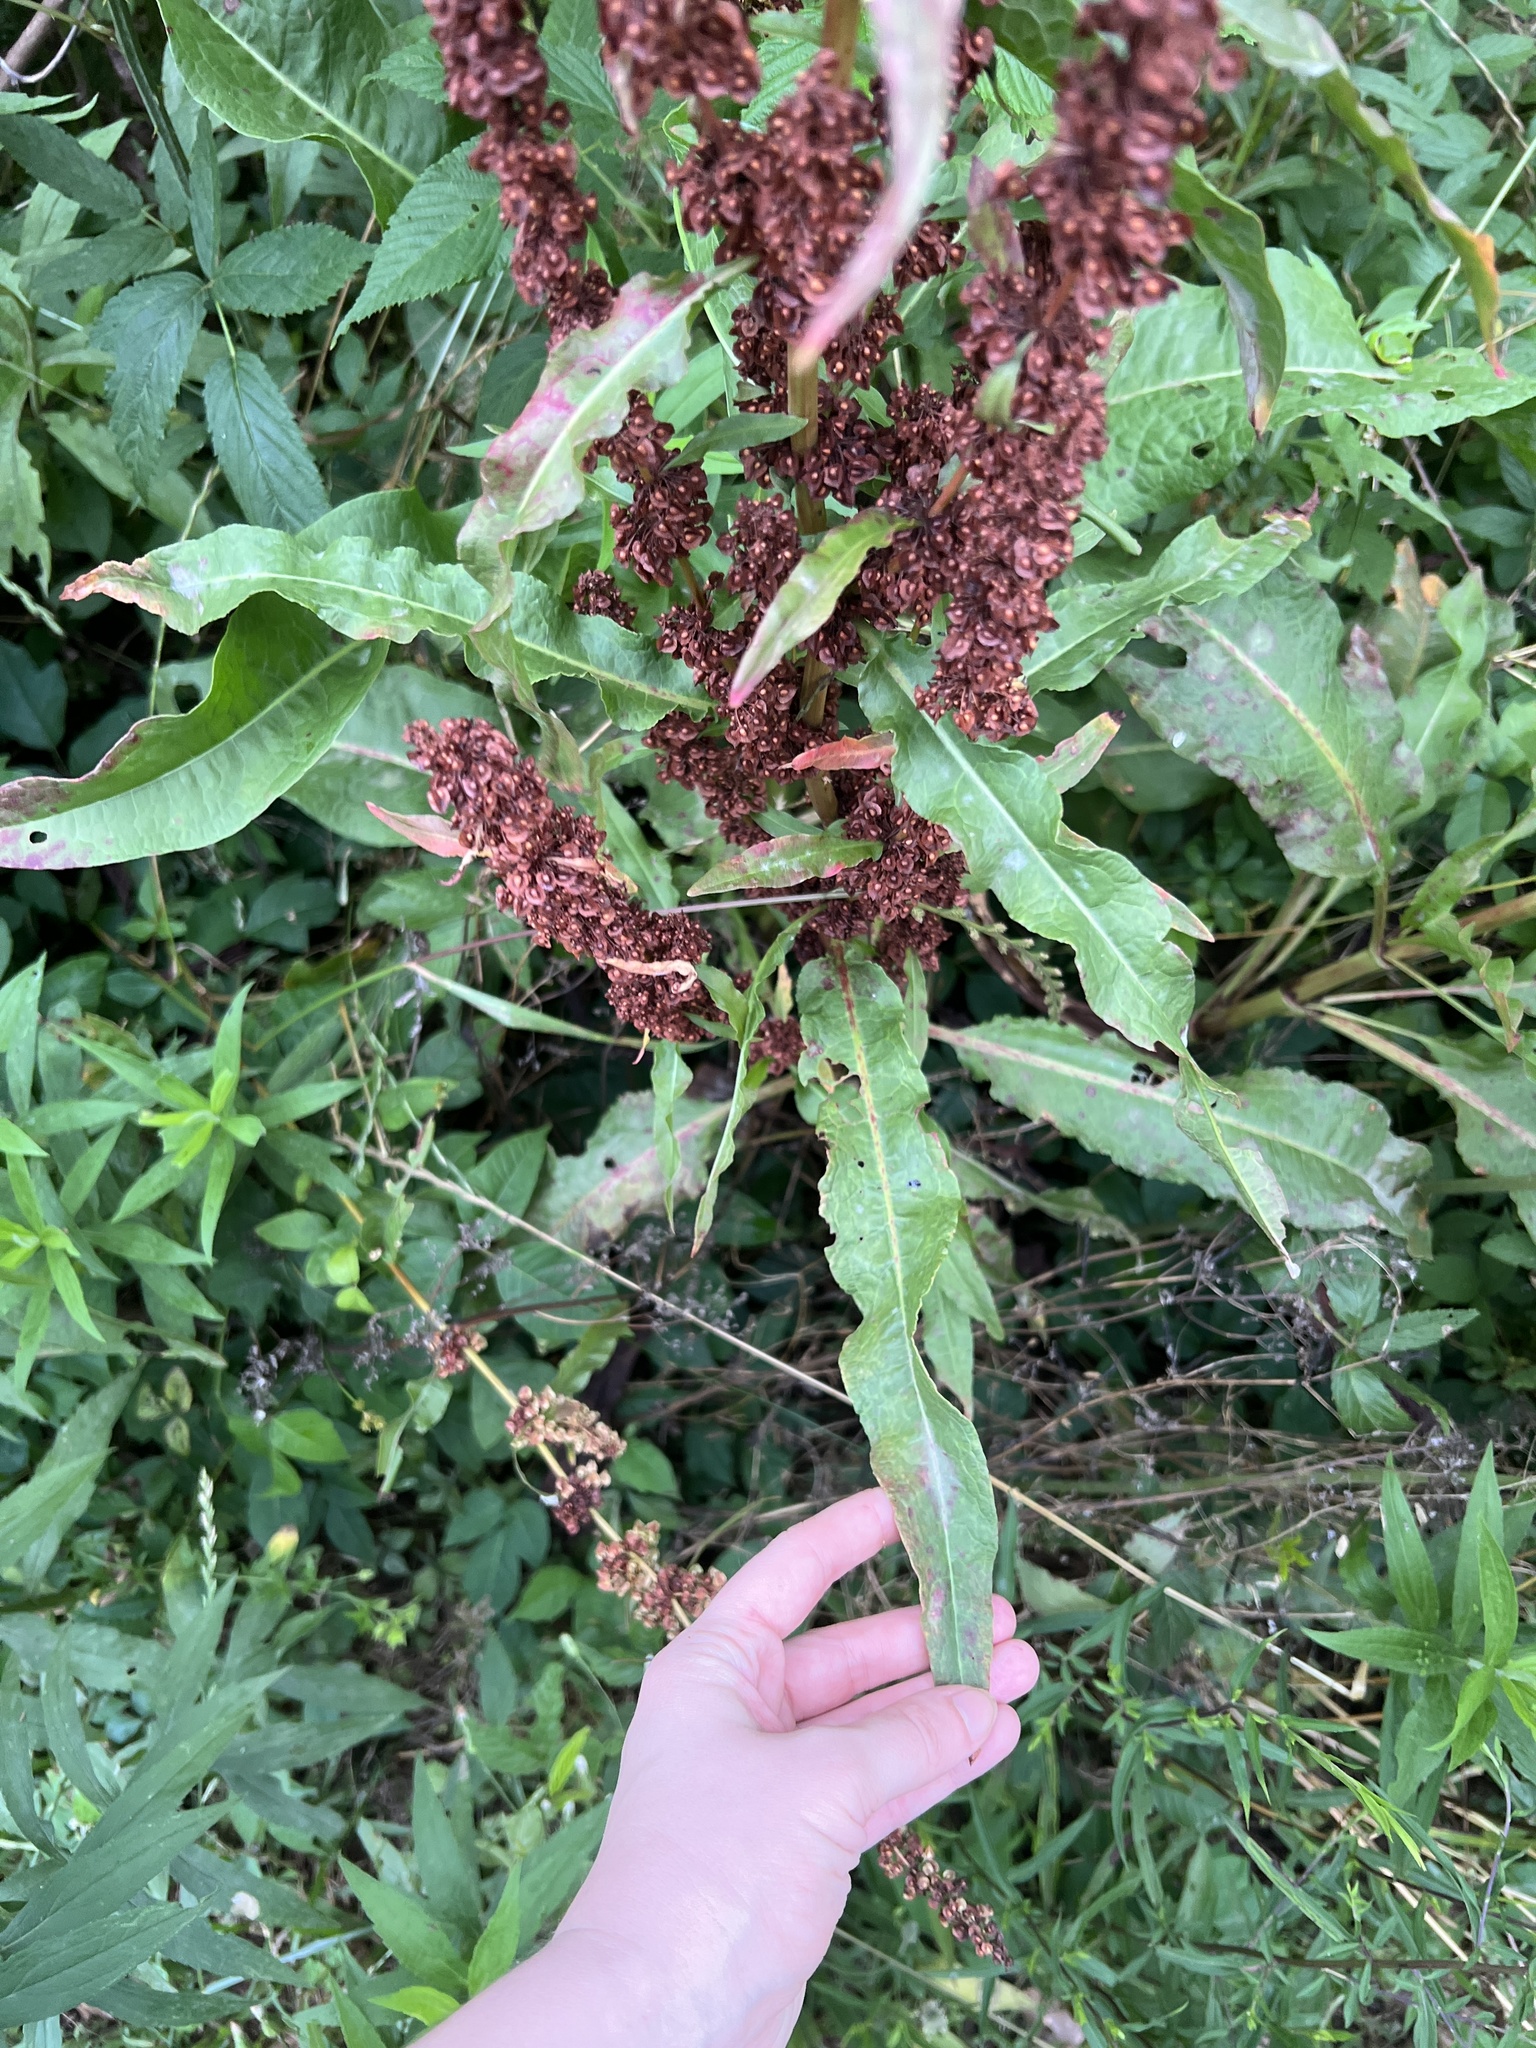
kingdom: Plantae
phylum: Tracheophyta
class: Magnoliopsida
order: Caryophyllales
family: Polygonaceae
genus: Rumex
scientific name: Rumex crispus
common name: Curled dock
